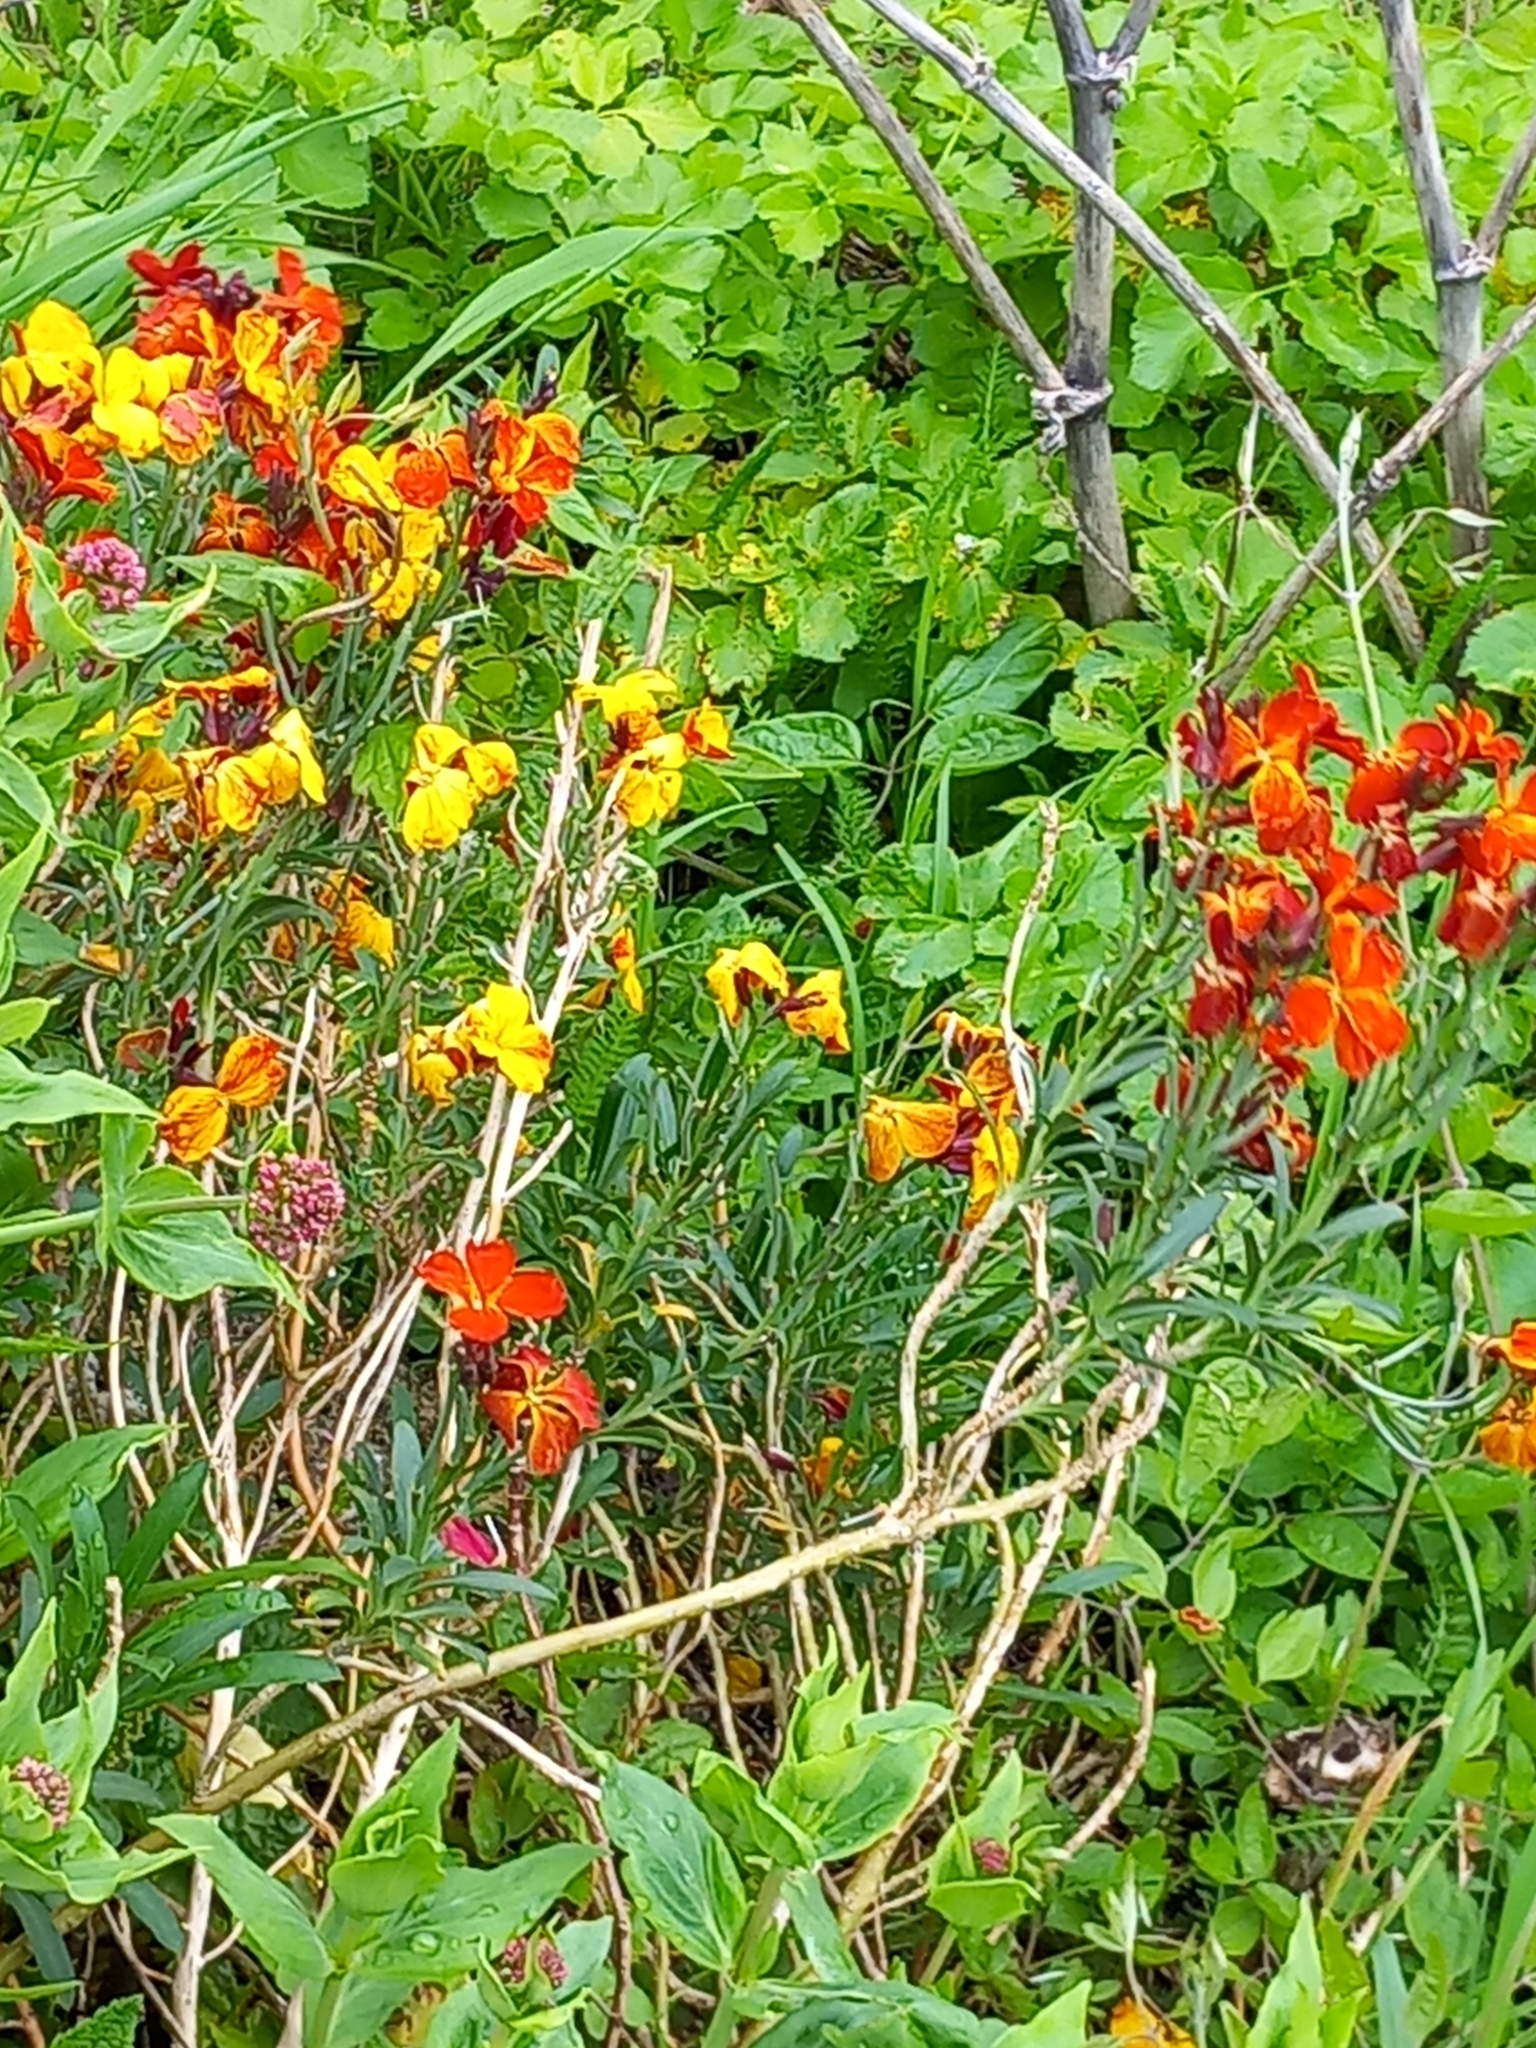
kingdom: Plantae
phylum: Tracheophyta
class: Magnoliopsida
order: Brassicales
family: Brassicaceae
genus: Erysimum
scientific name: Erysimum cheiri
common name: Wallflower
